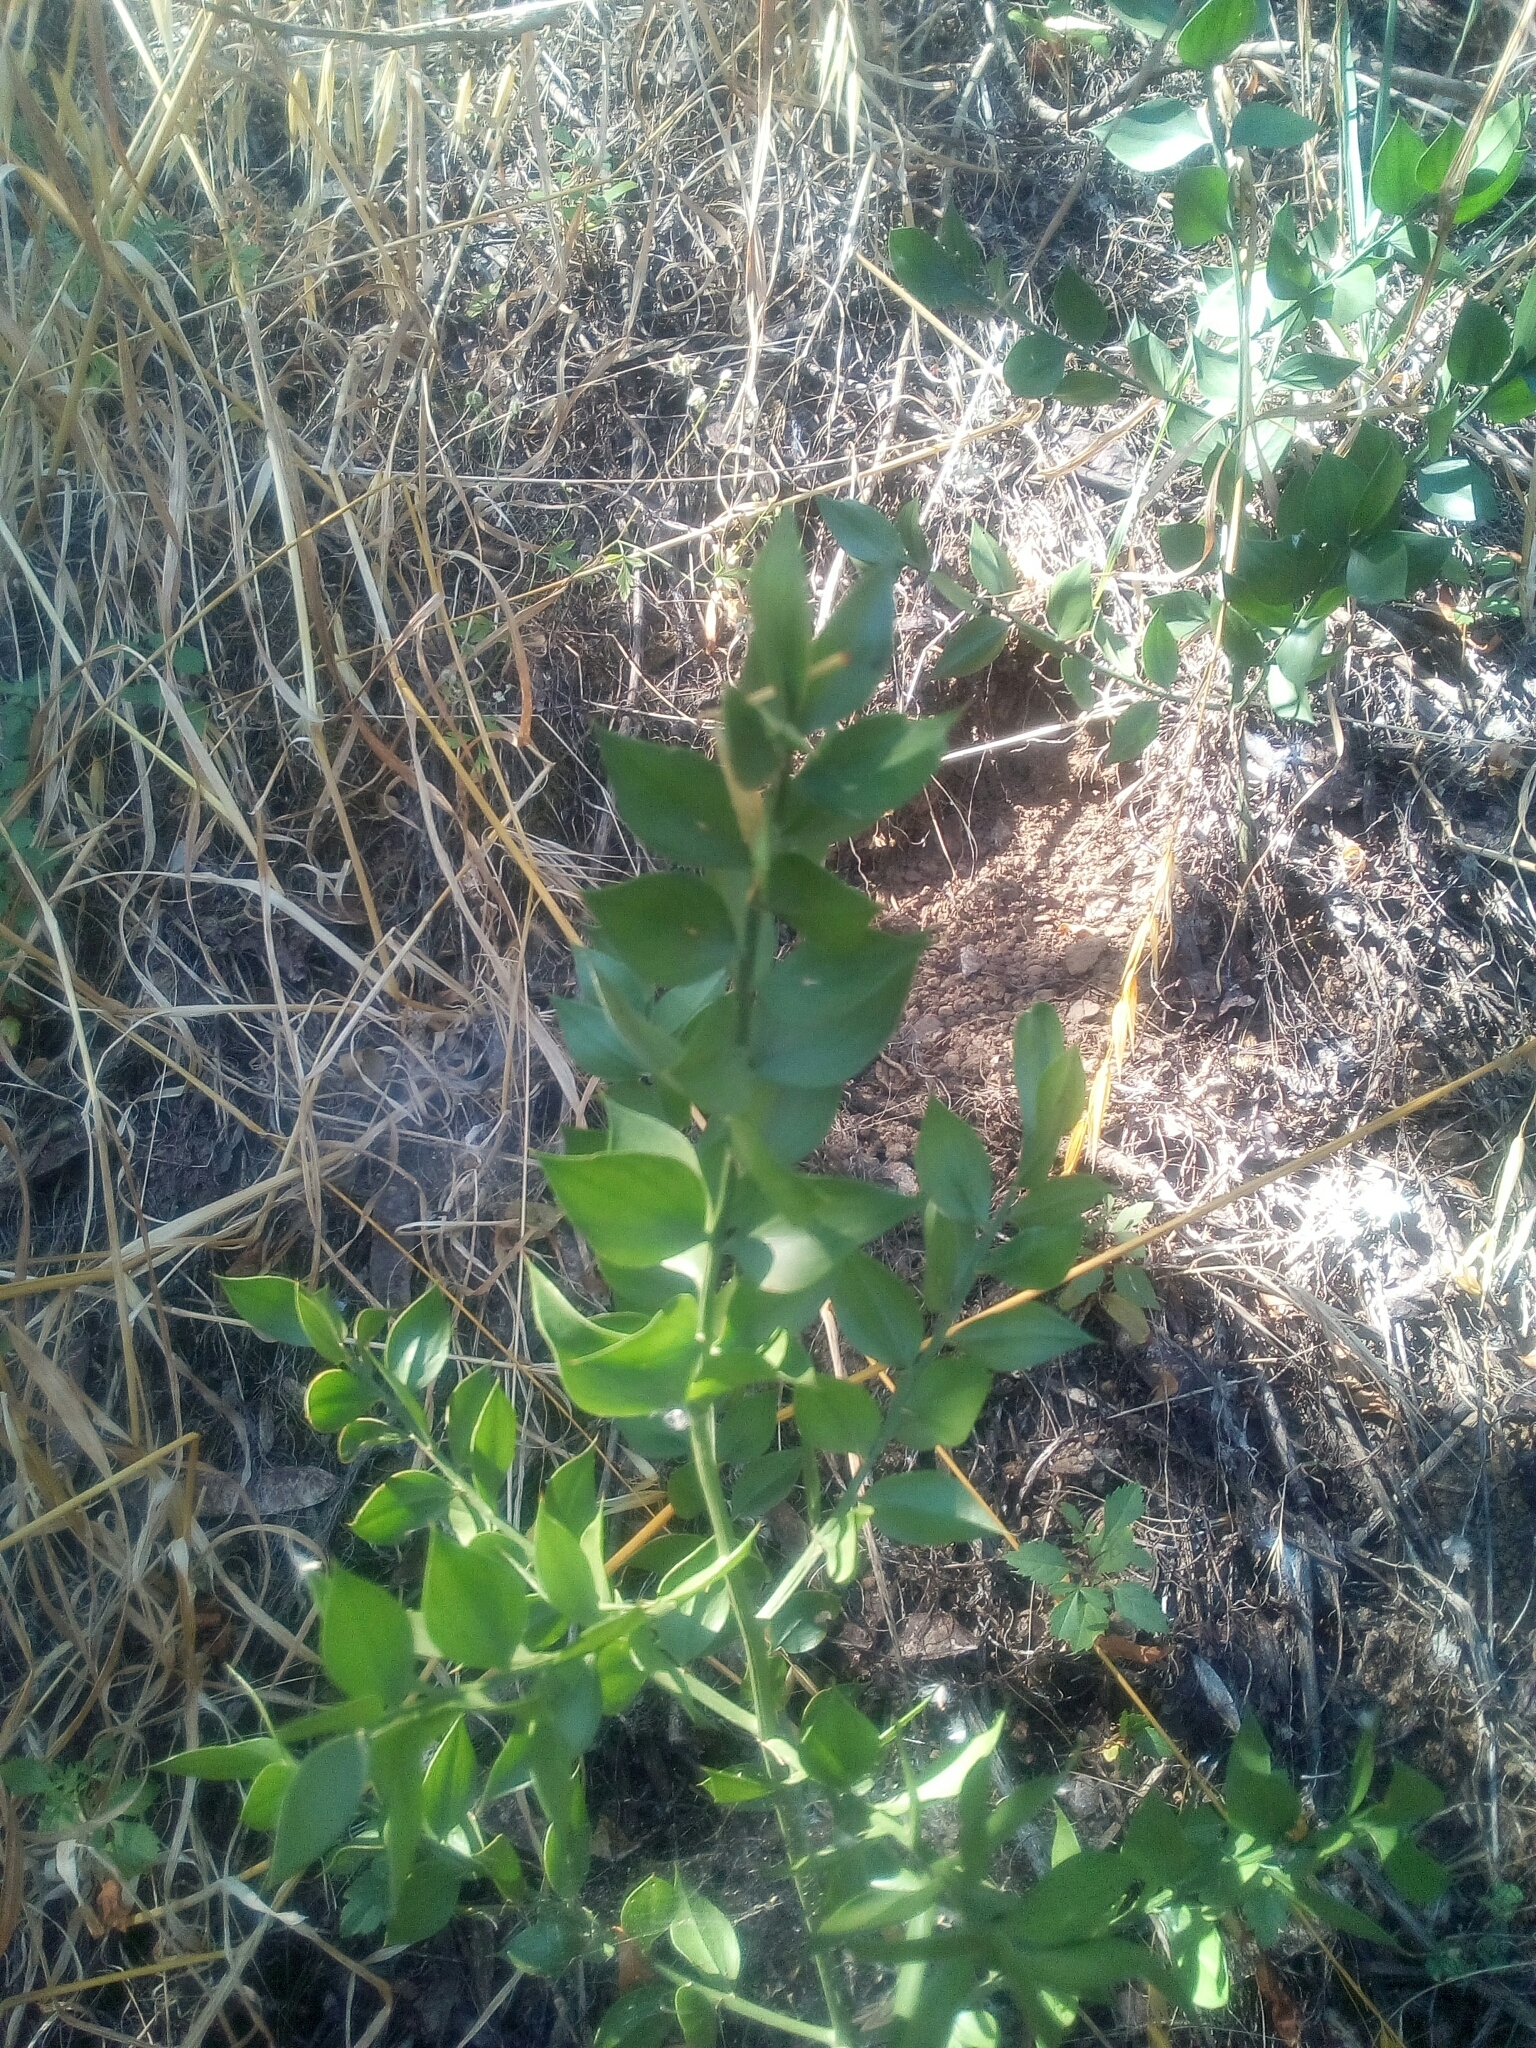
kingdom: Plantae
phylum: Tracheophyta
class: Liliopsida
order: Asparagales
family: Asparagaceae
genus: Ruscus
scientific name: Ruscus aculeatus
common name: Butcher's-broom
